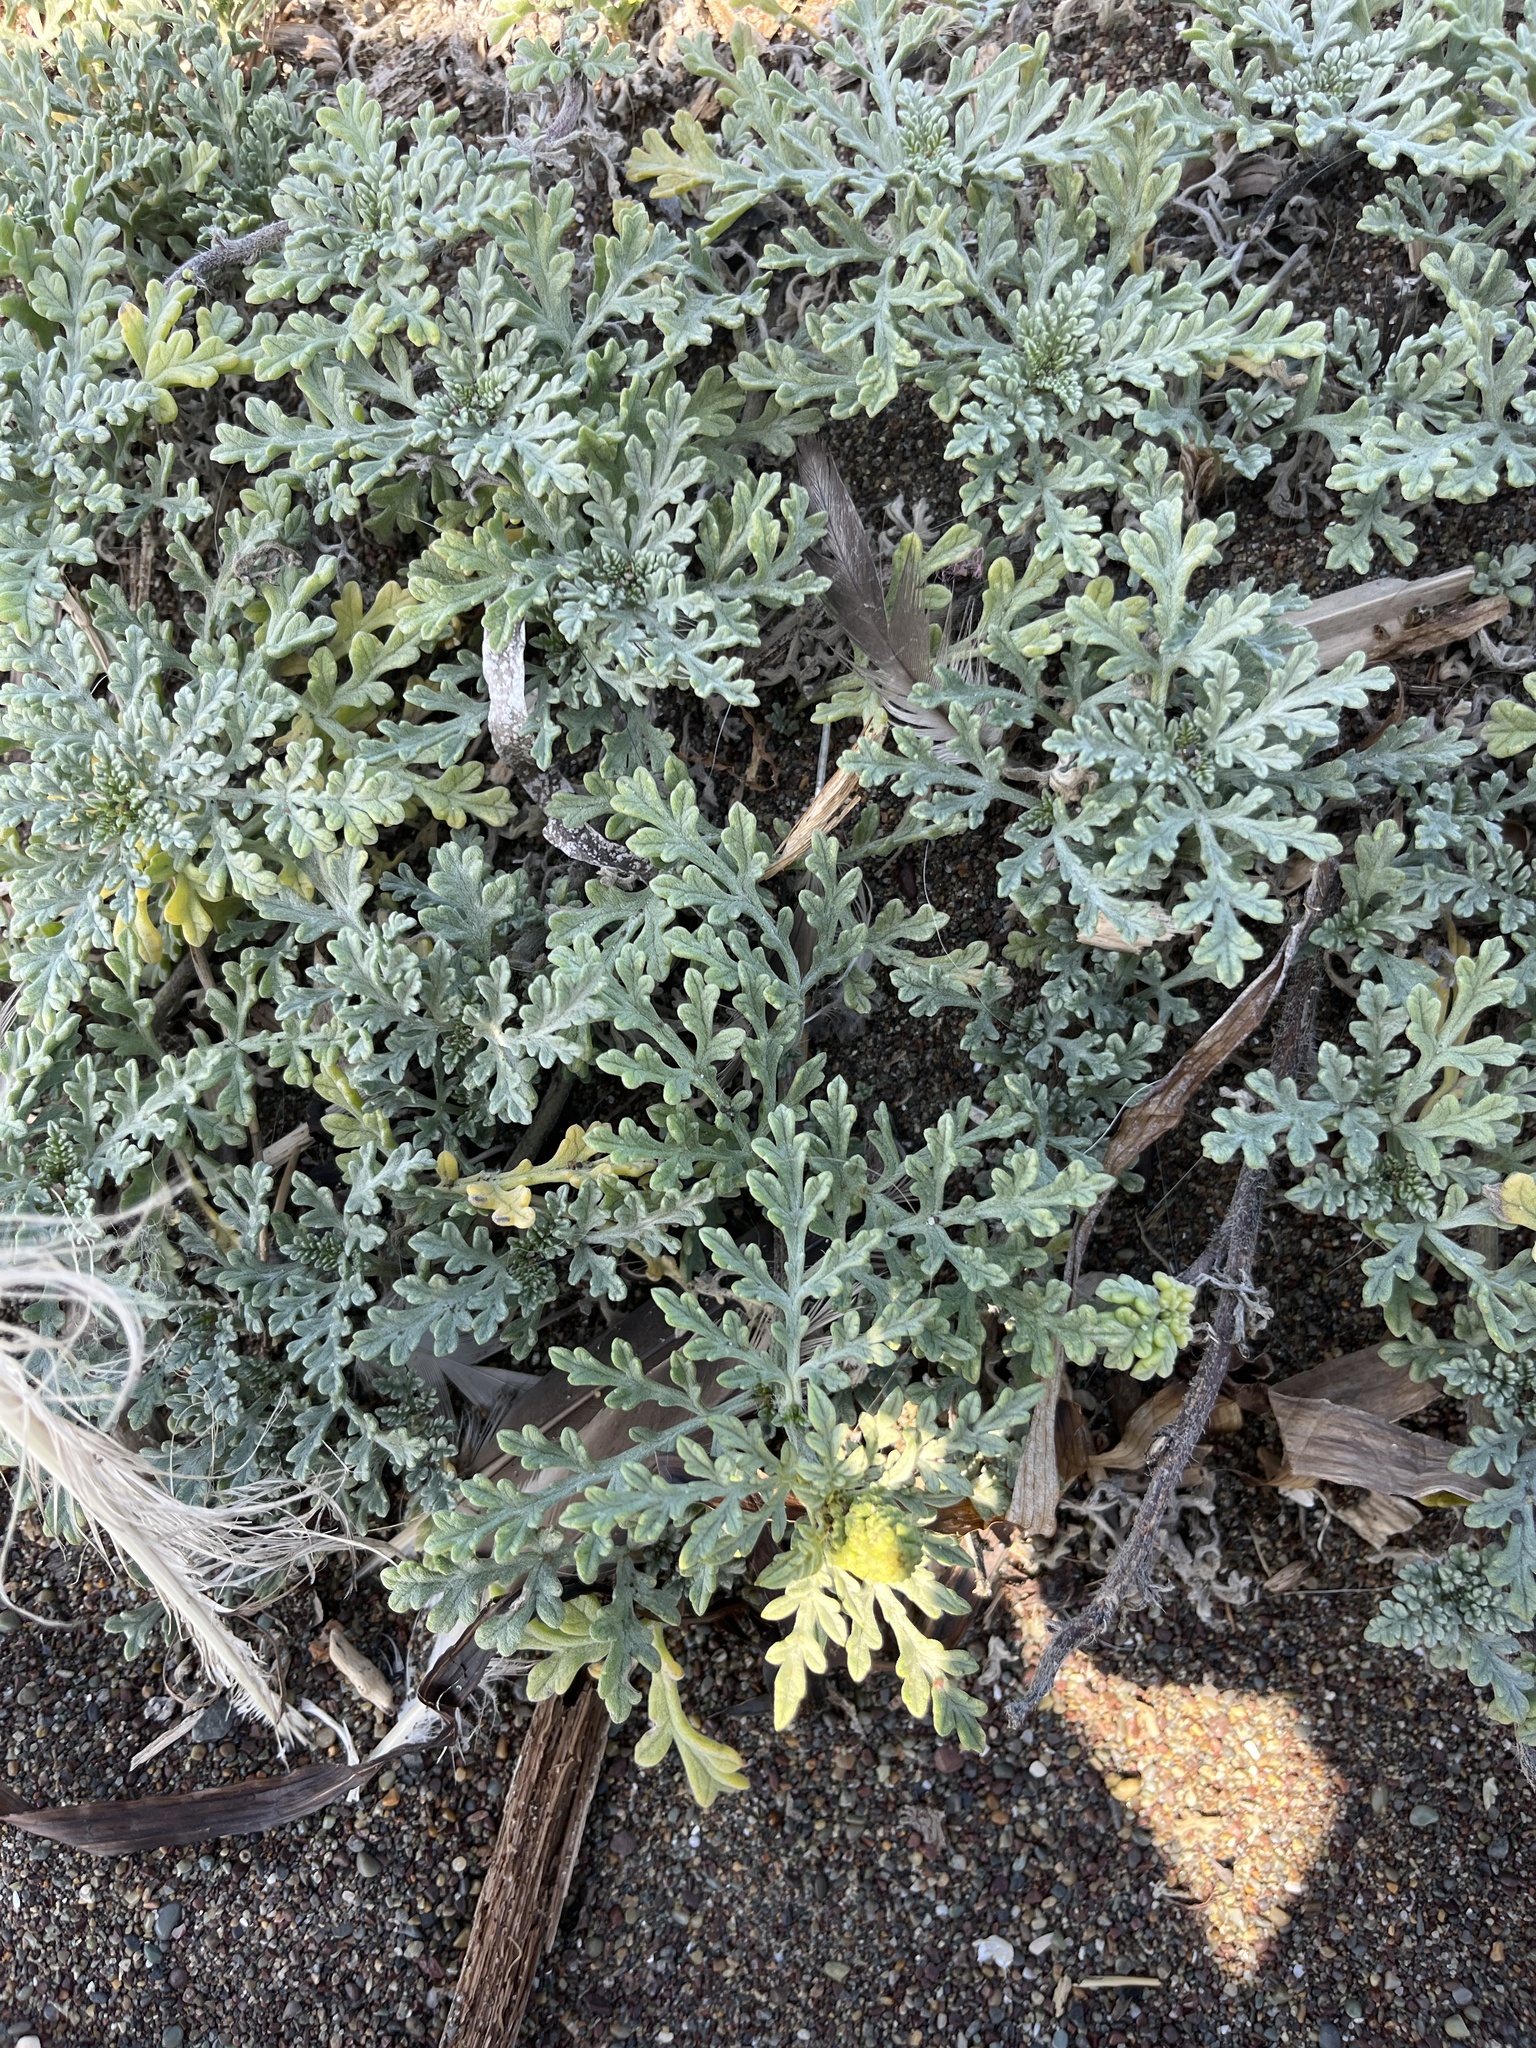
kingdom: Plantae
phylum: Tracheophyta
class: Magnoliopsida
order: Asterales
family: Asteraceae
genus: Ambrosia
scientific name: Ambrosia chamissonis
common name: Beachbur
